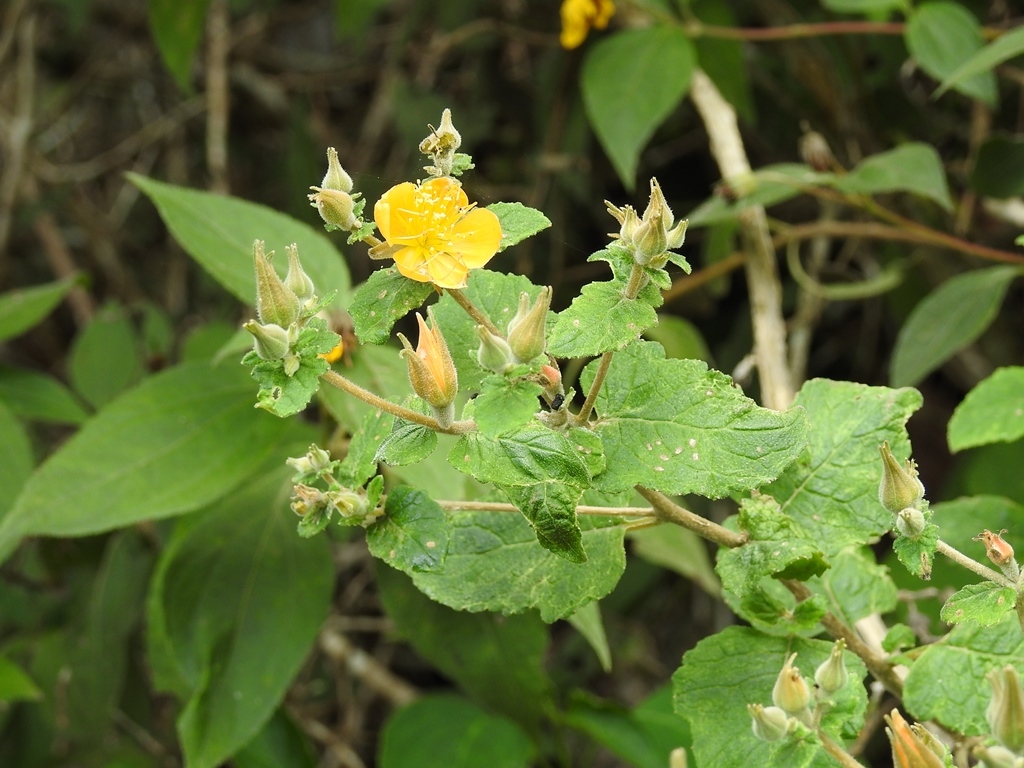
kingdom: Plantae
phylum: Tracheophyta
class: Magnoliopsida
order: Cornales
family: Loasaceae
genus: Mentzelia
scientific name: Mentzelia hispida
